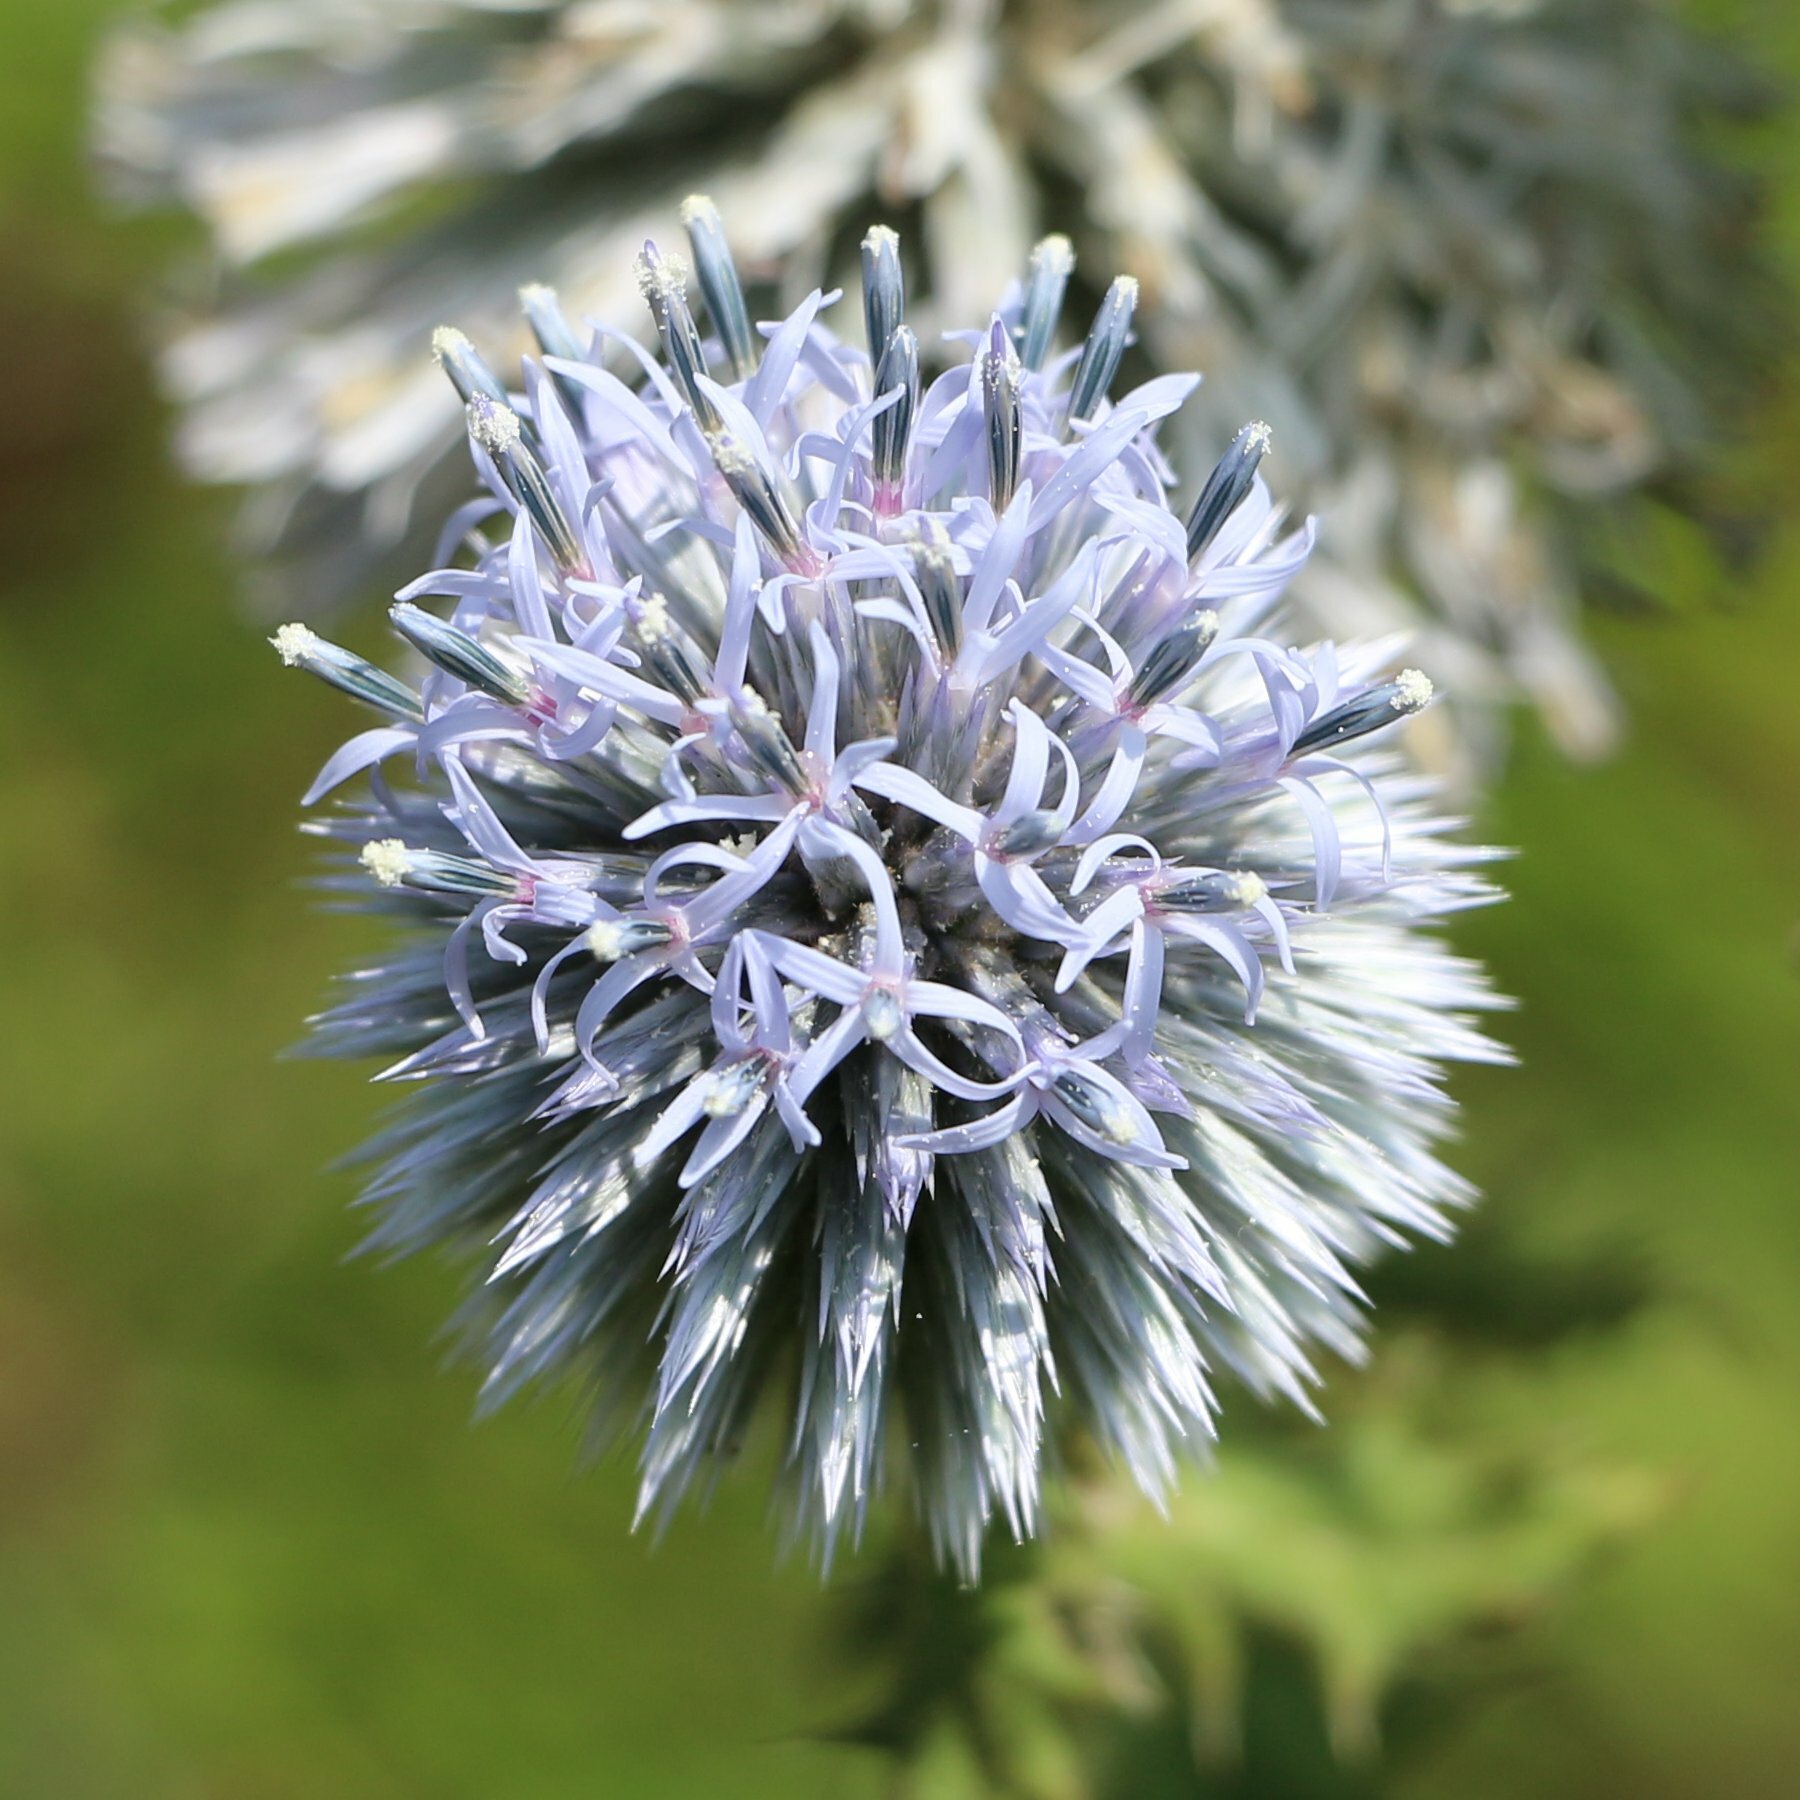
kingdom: Plantae
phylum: Tracheophyta
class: Magnoliopsida
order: Asterales
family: Asteraceae
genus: Echinops
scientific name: Echinops sphaerocephalus
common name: Glandular globe-thistle
